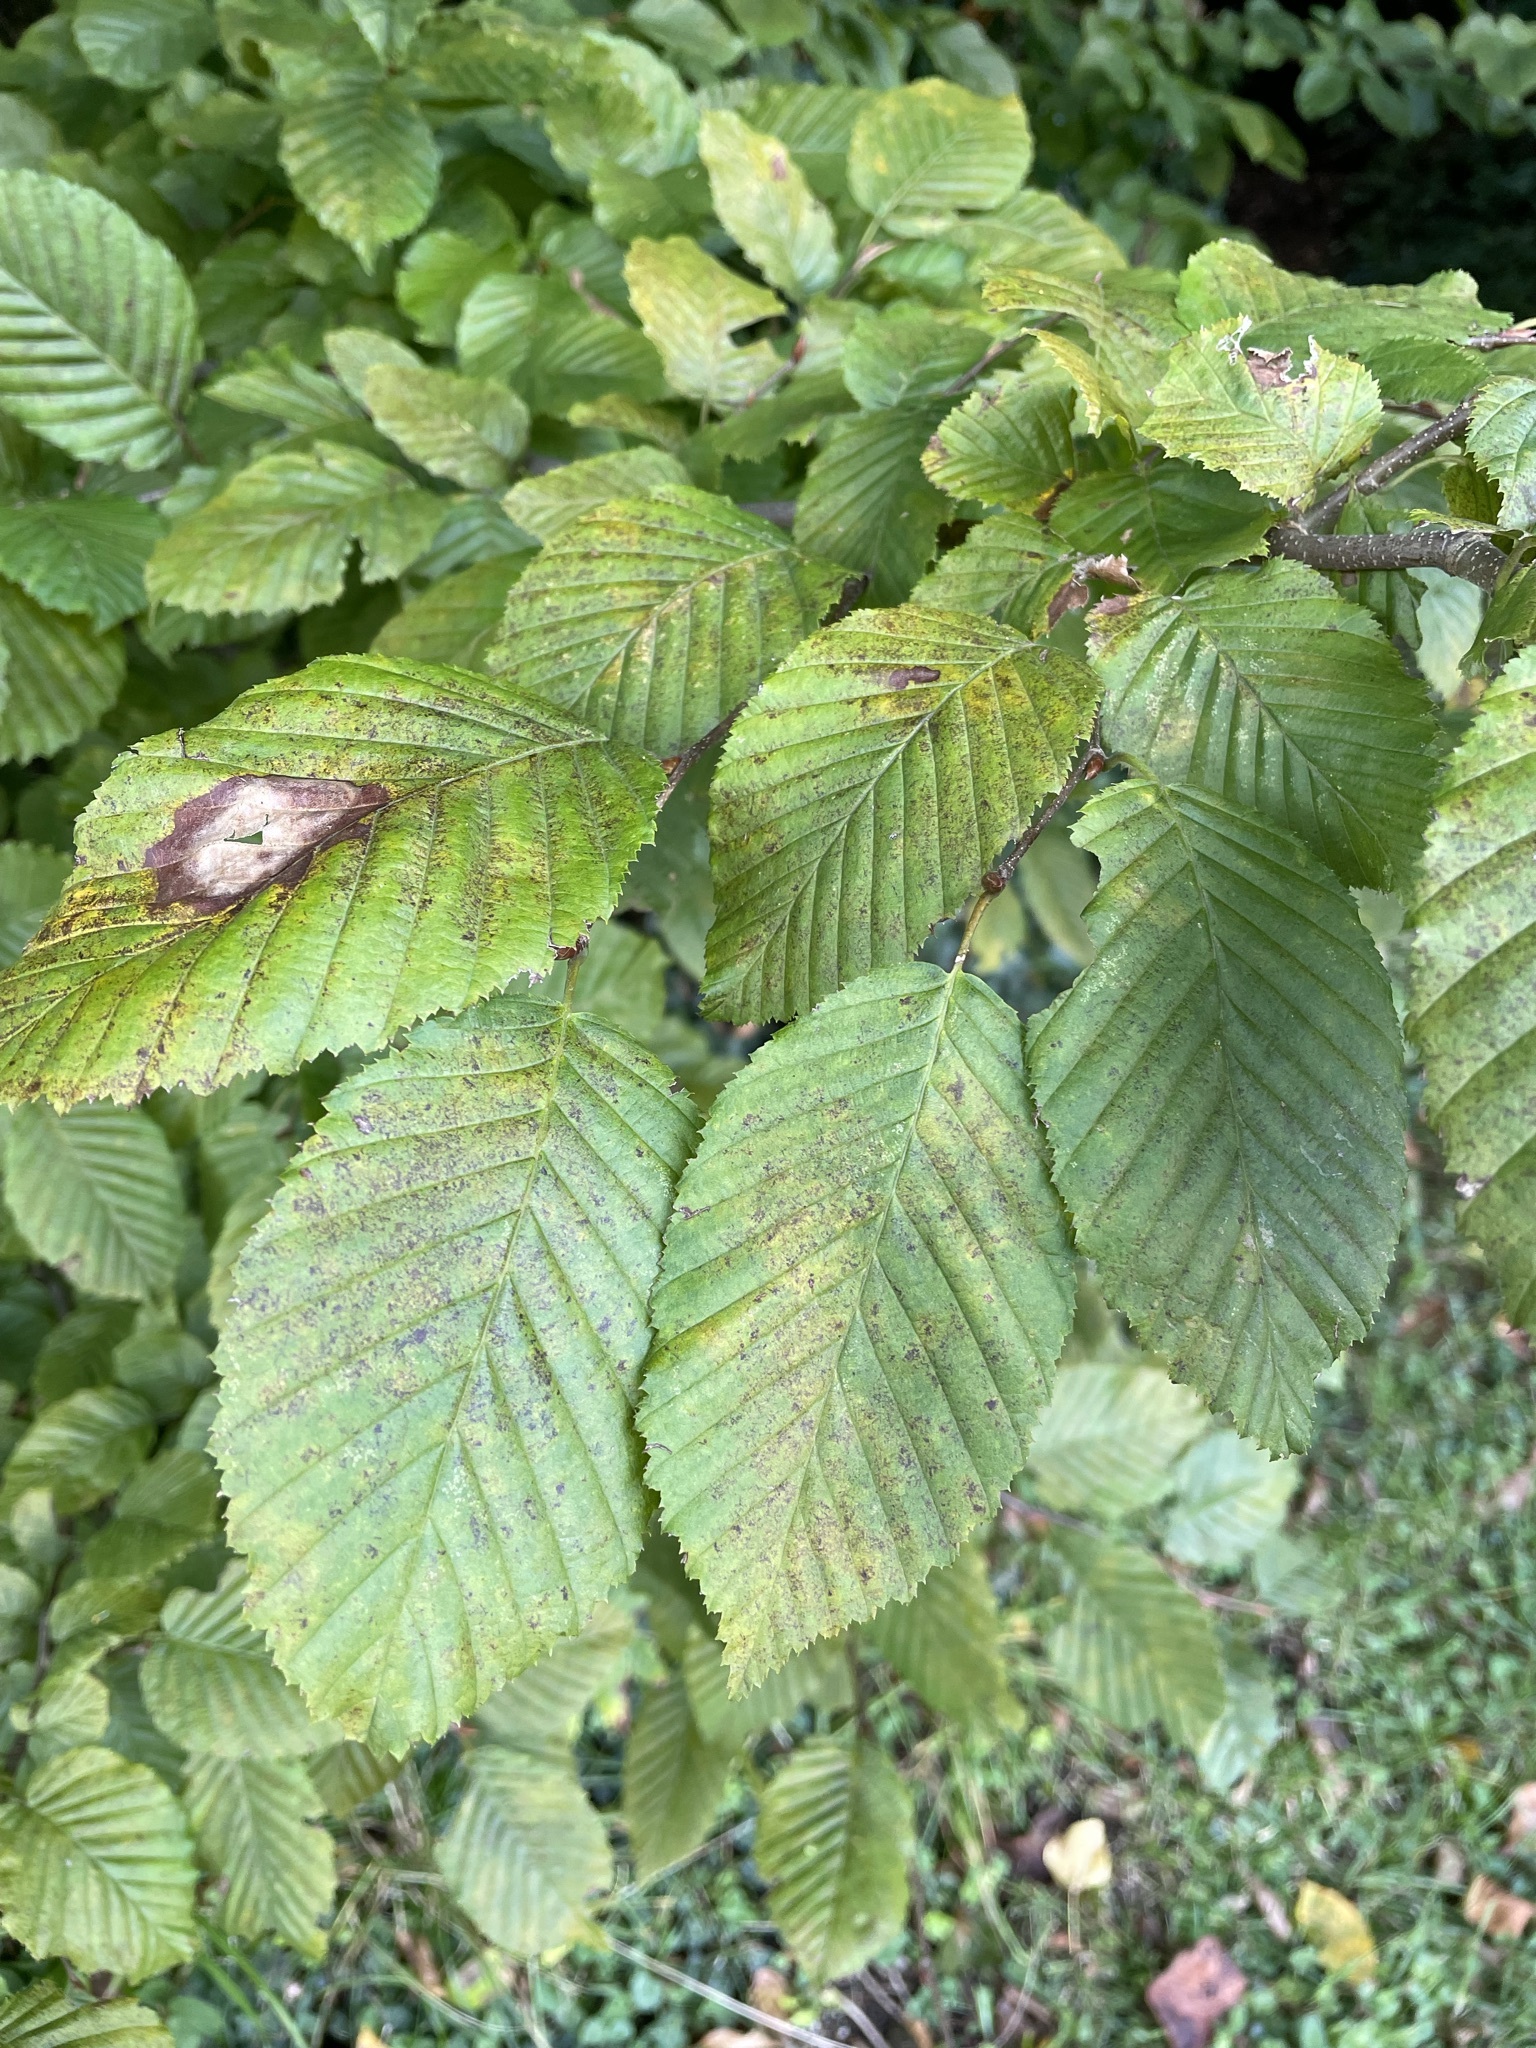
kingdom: Plantae
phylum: Tracheophyta
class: Magnoliopsida
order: Fagales
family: Betulaceae
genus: Carpinus
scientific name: Carpinus betulus
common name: Hornbeam
